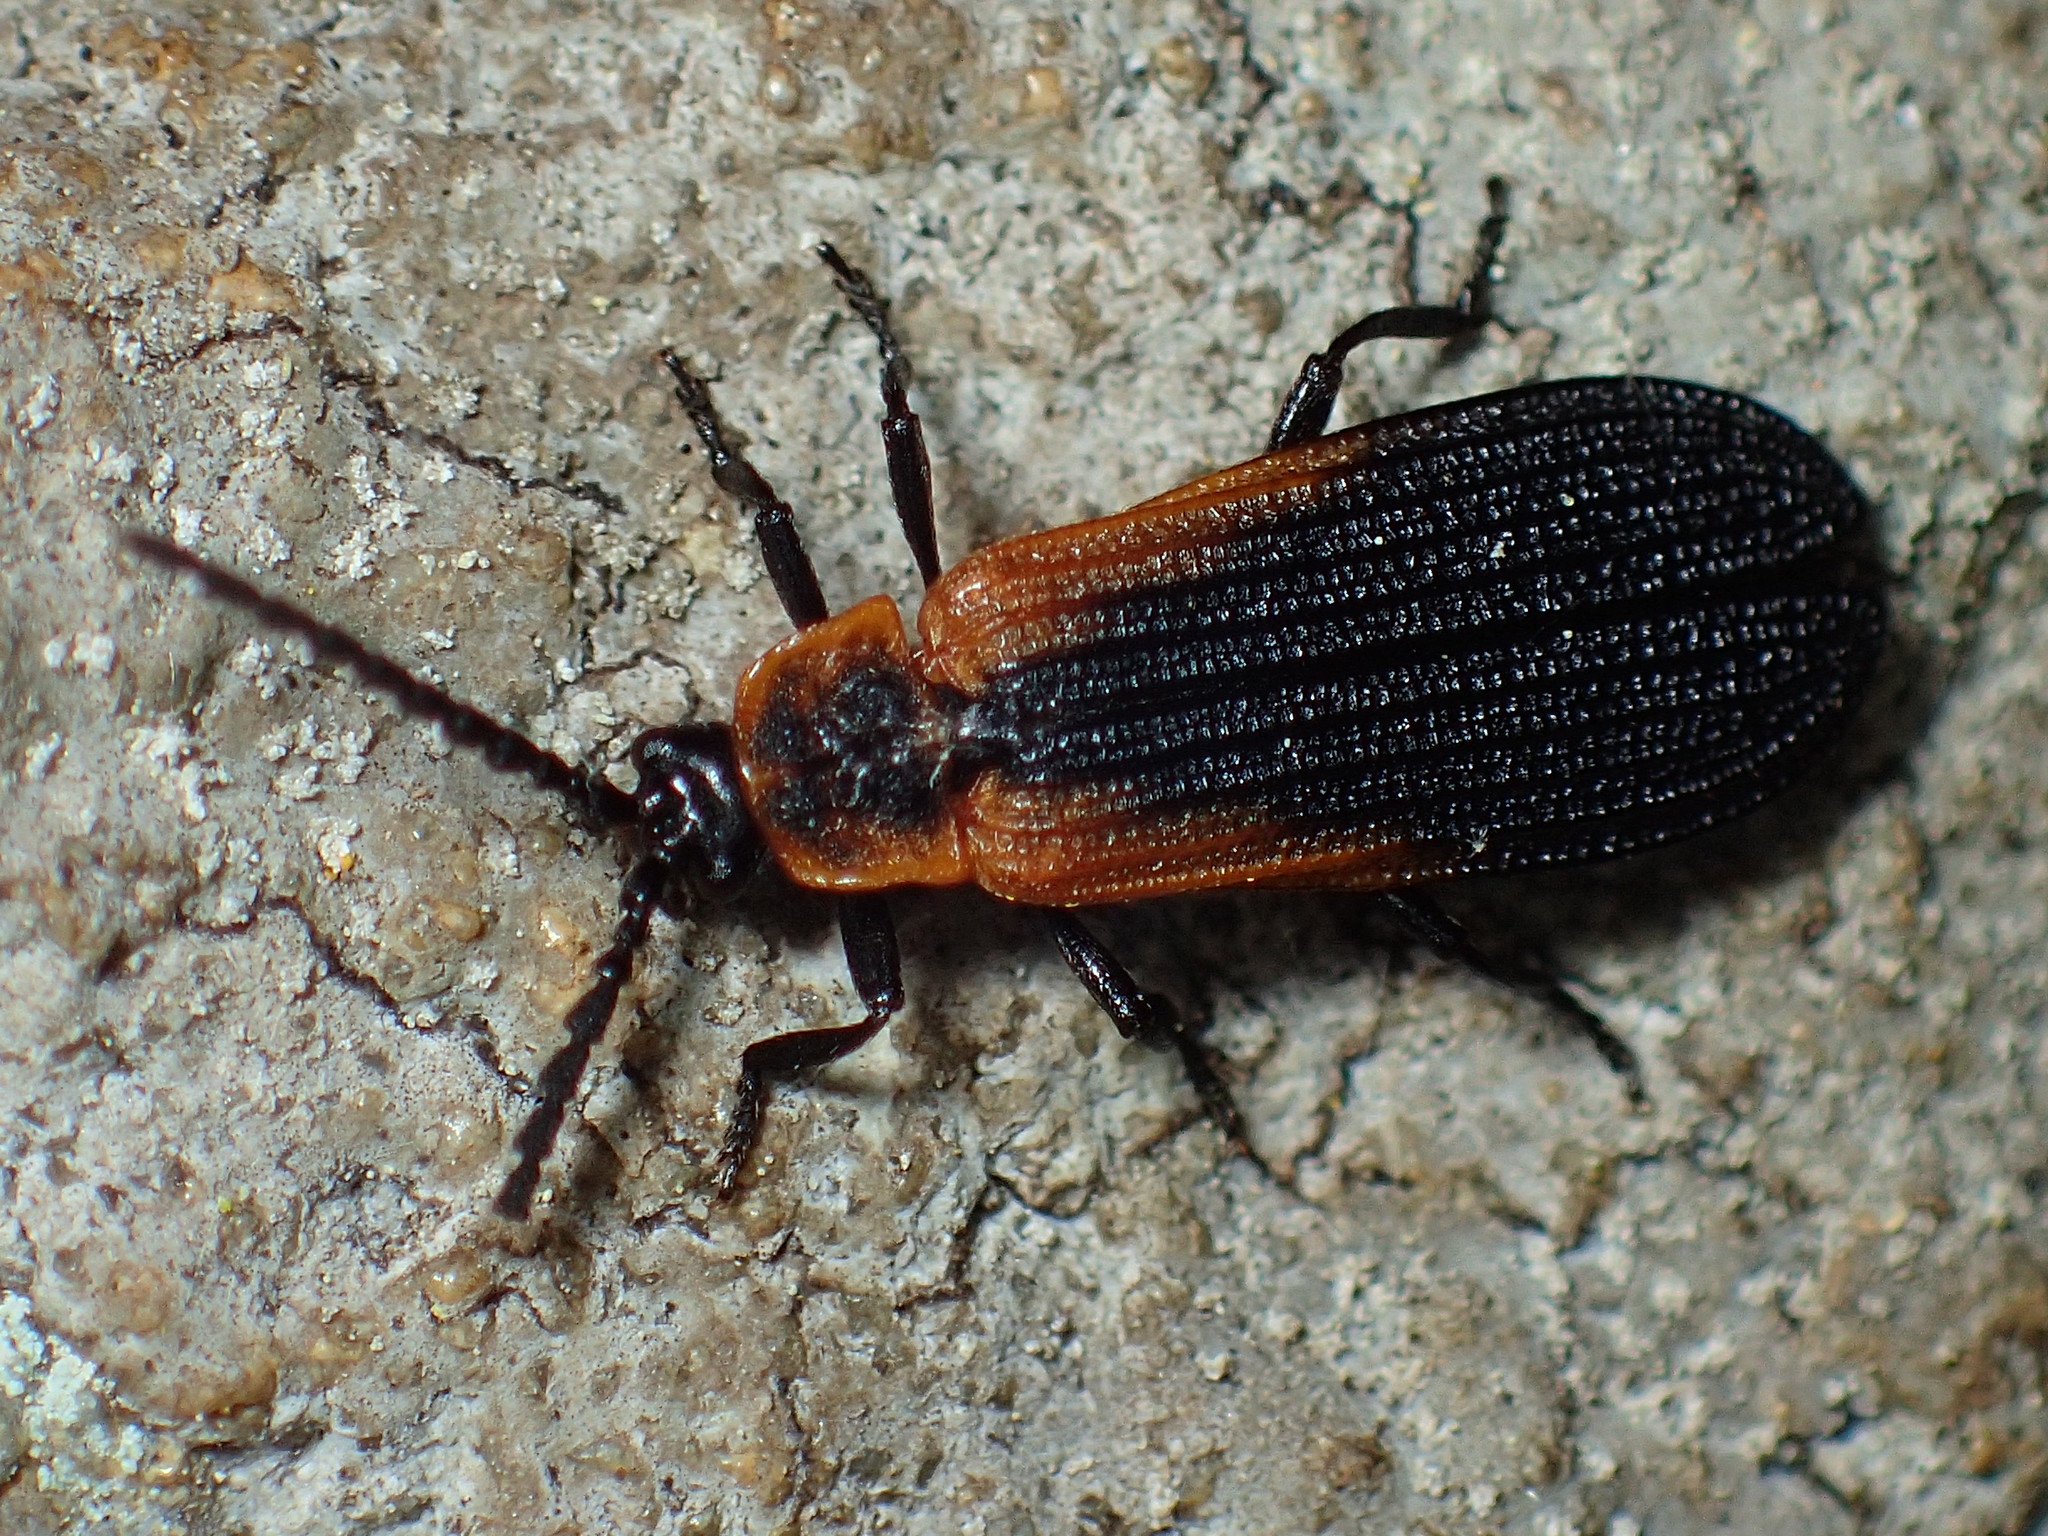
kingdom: Animalia
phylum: Arthropoda
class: Insecta
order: Coleoptera
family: Lycidae
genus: Eros
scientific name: Eros humeralis
